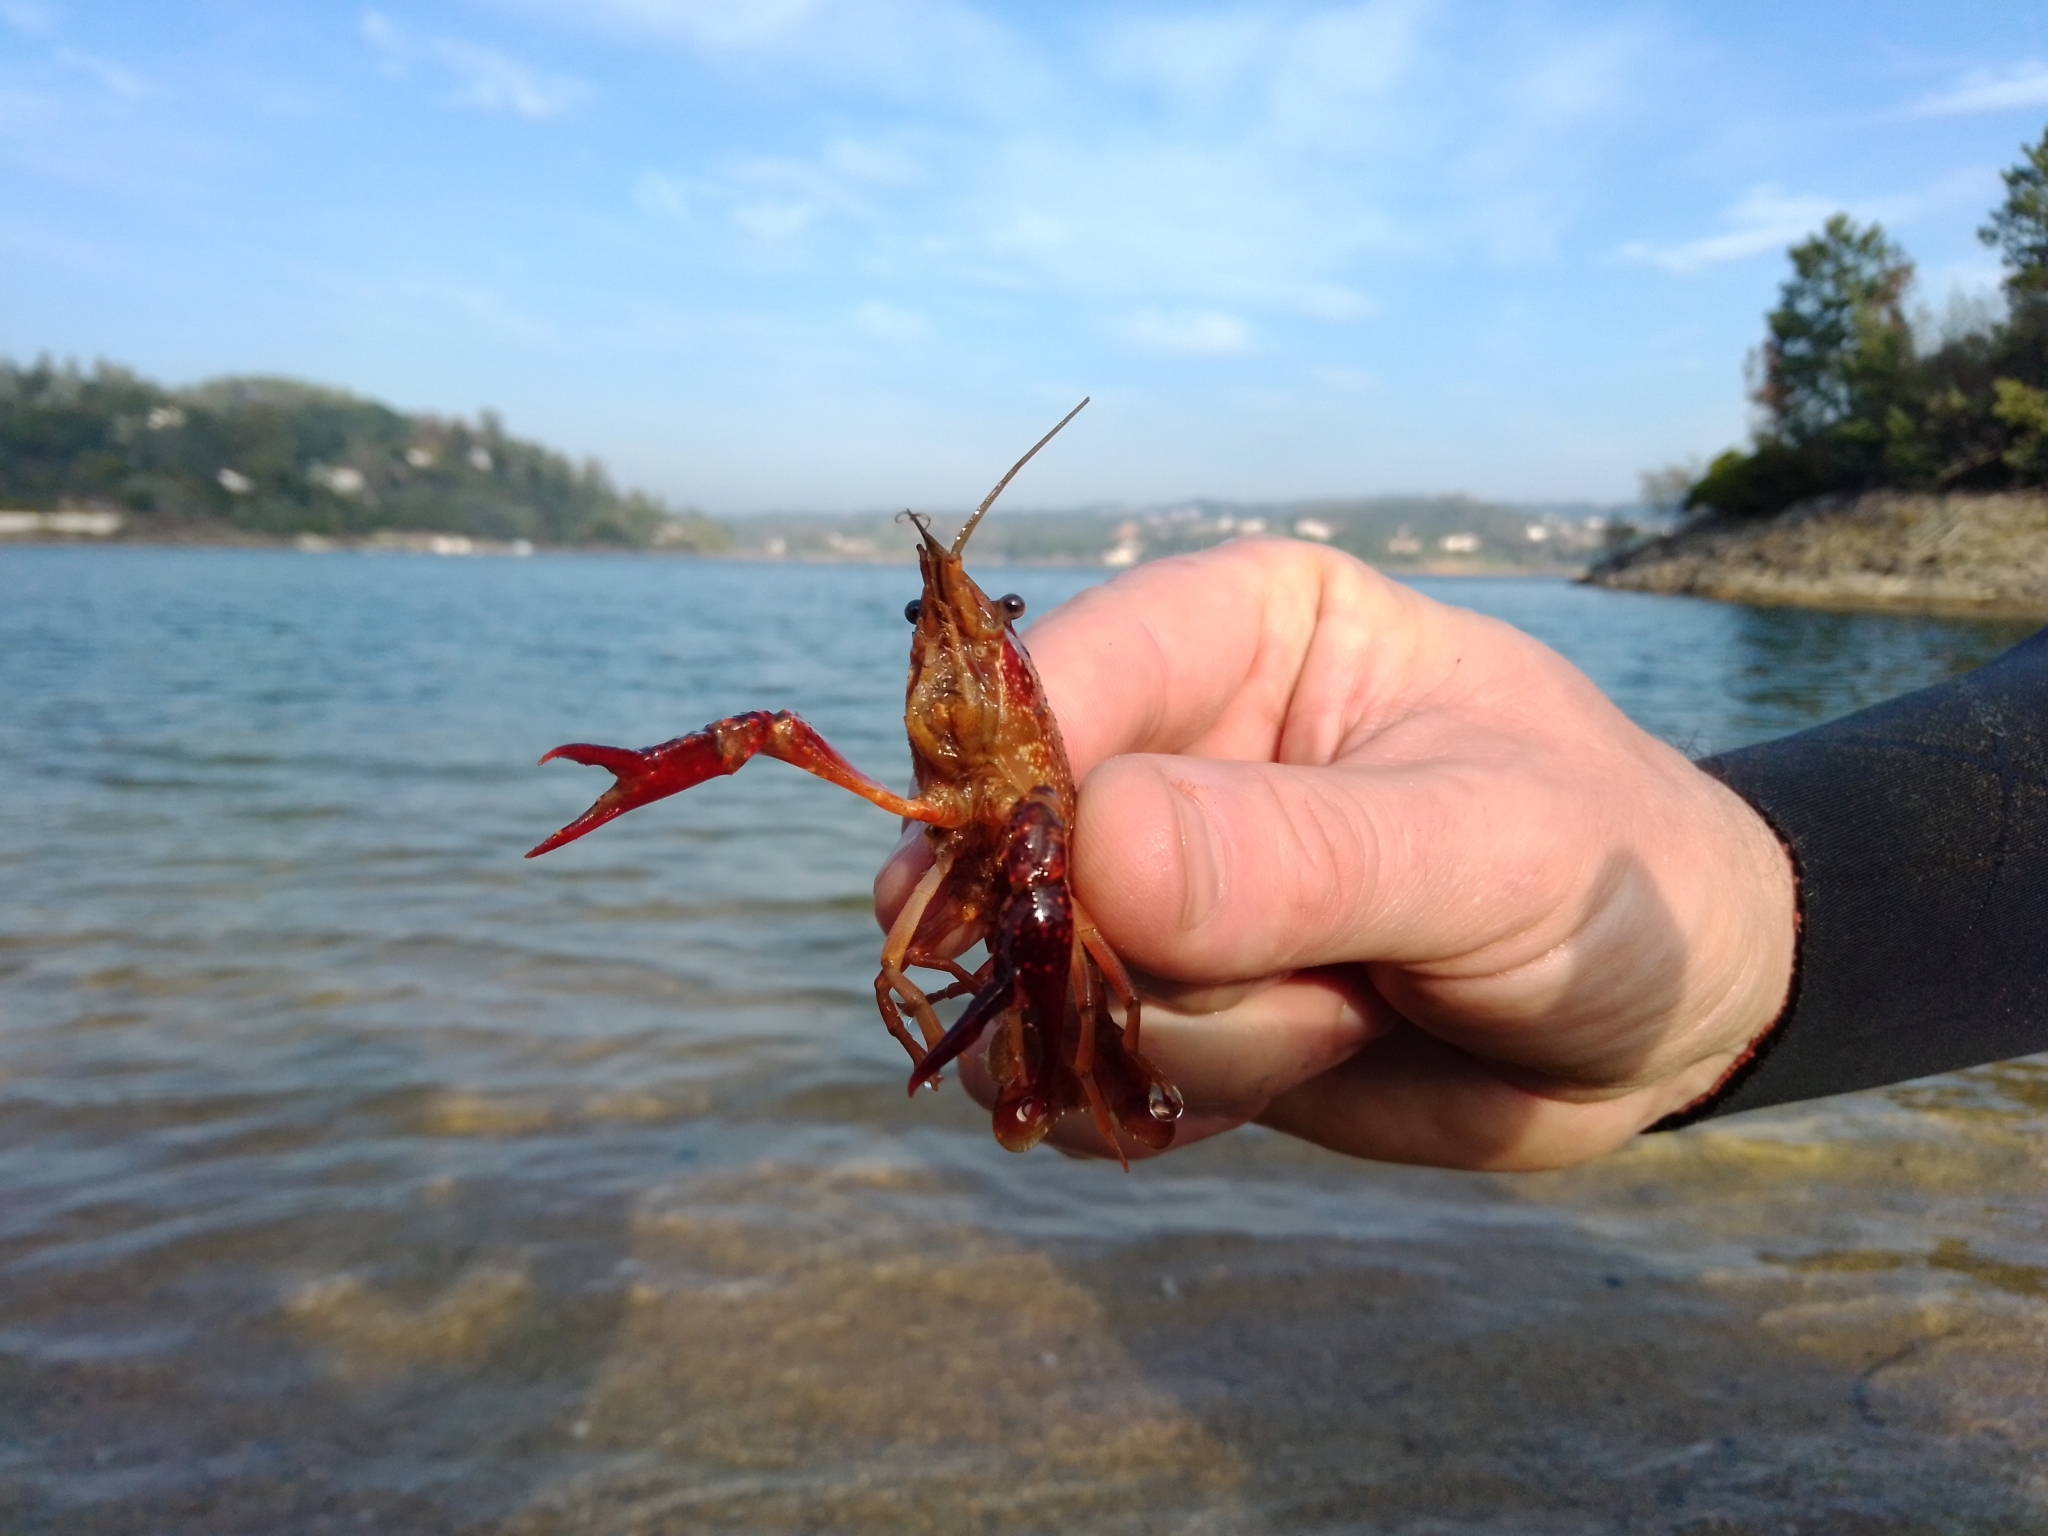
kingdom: Animalia
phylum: Arthropoda
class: Malacostraca
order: Decapoda
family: Cambaridae
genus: Procambarus
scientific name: Procambarus clarkii
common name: Red swamp crayfish
